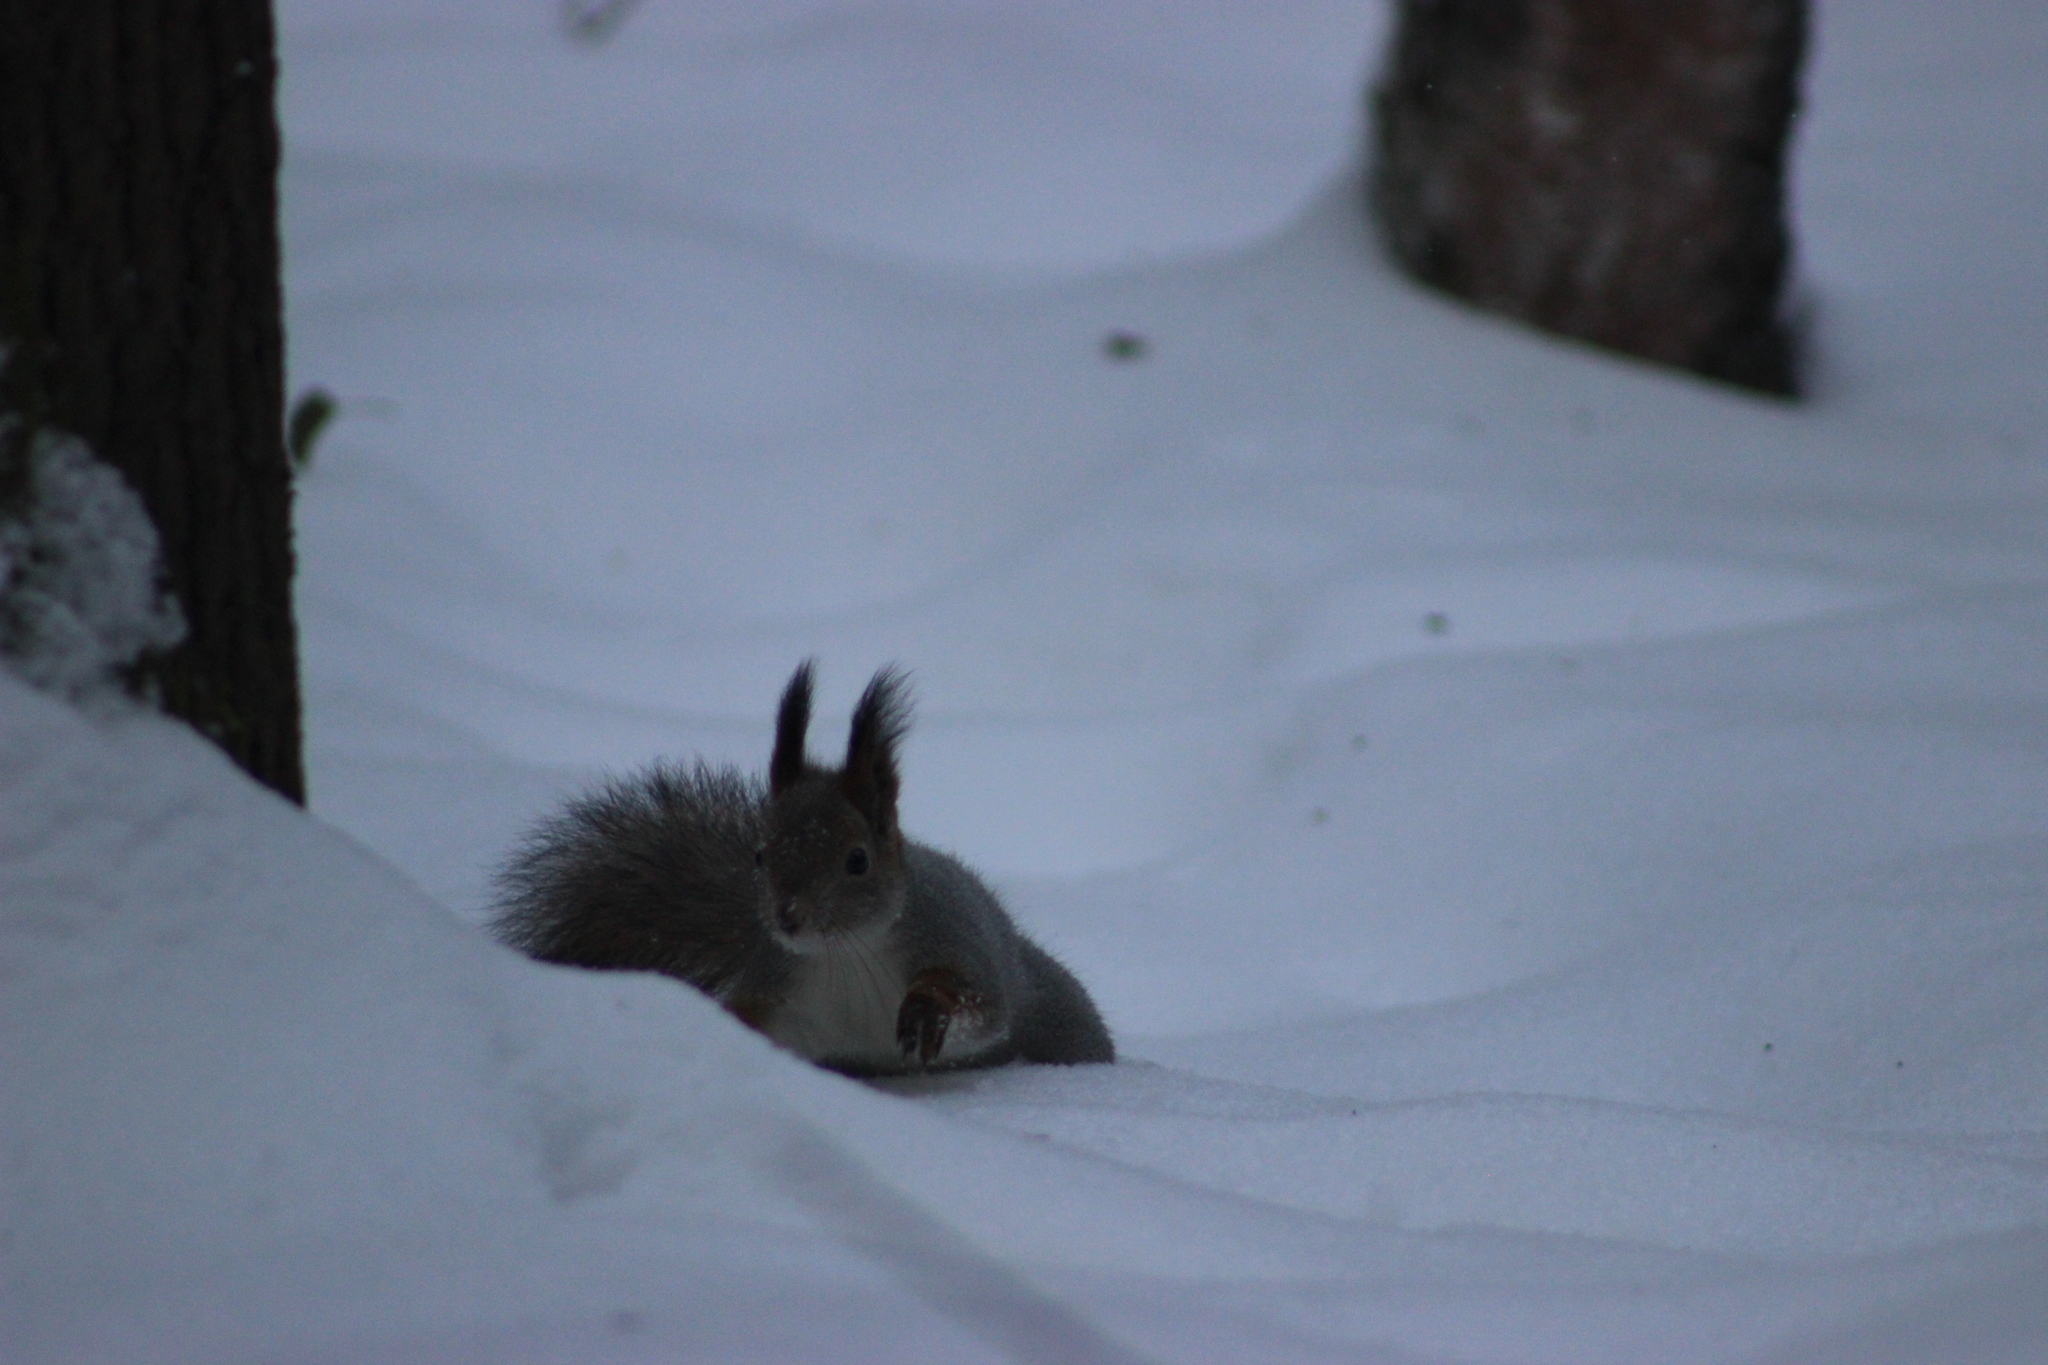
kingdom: Animalia
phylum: Chordata
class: Mammalia
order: Rodentia
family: Sciuridae
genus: Sciurus
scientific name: Sciurus vulgaris
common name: Eurasian red squirrel
